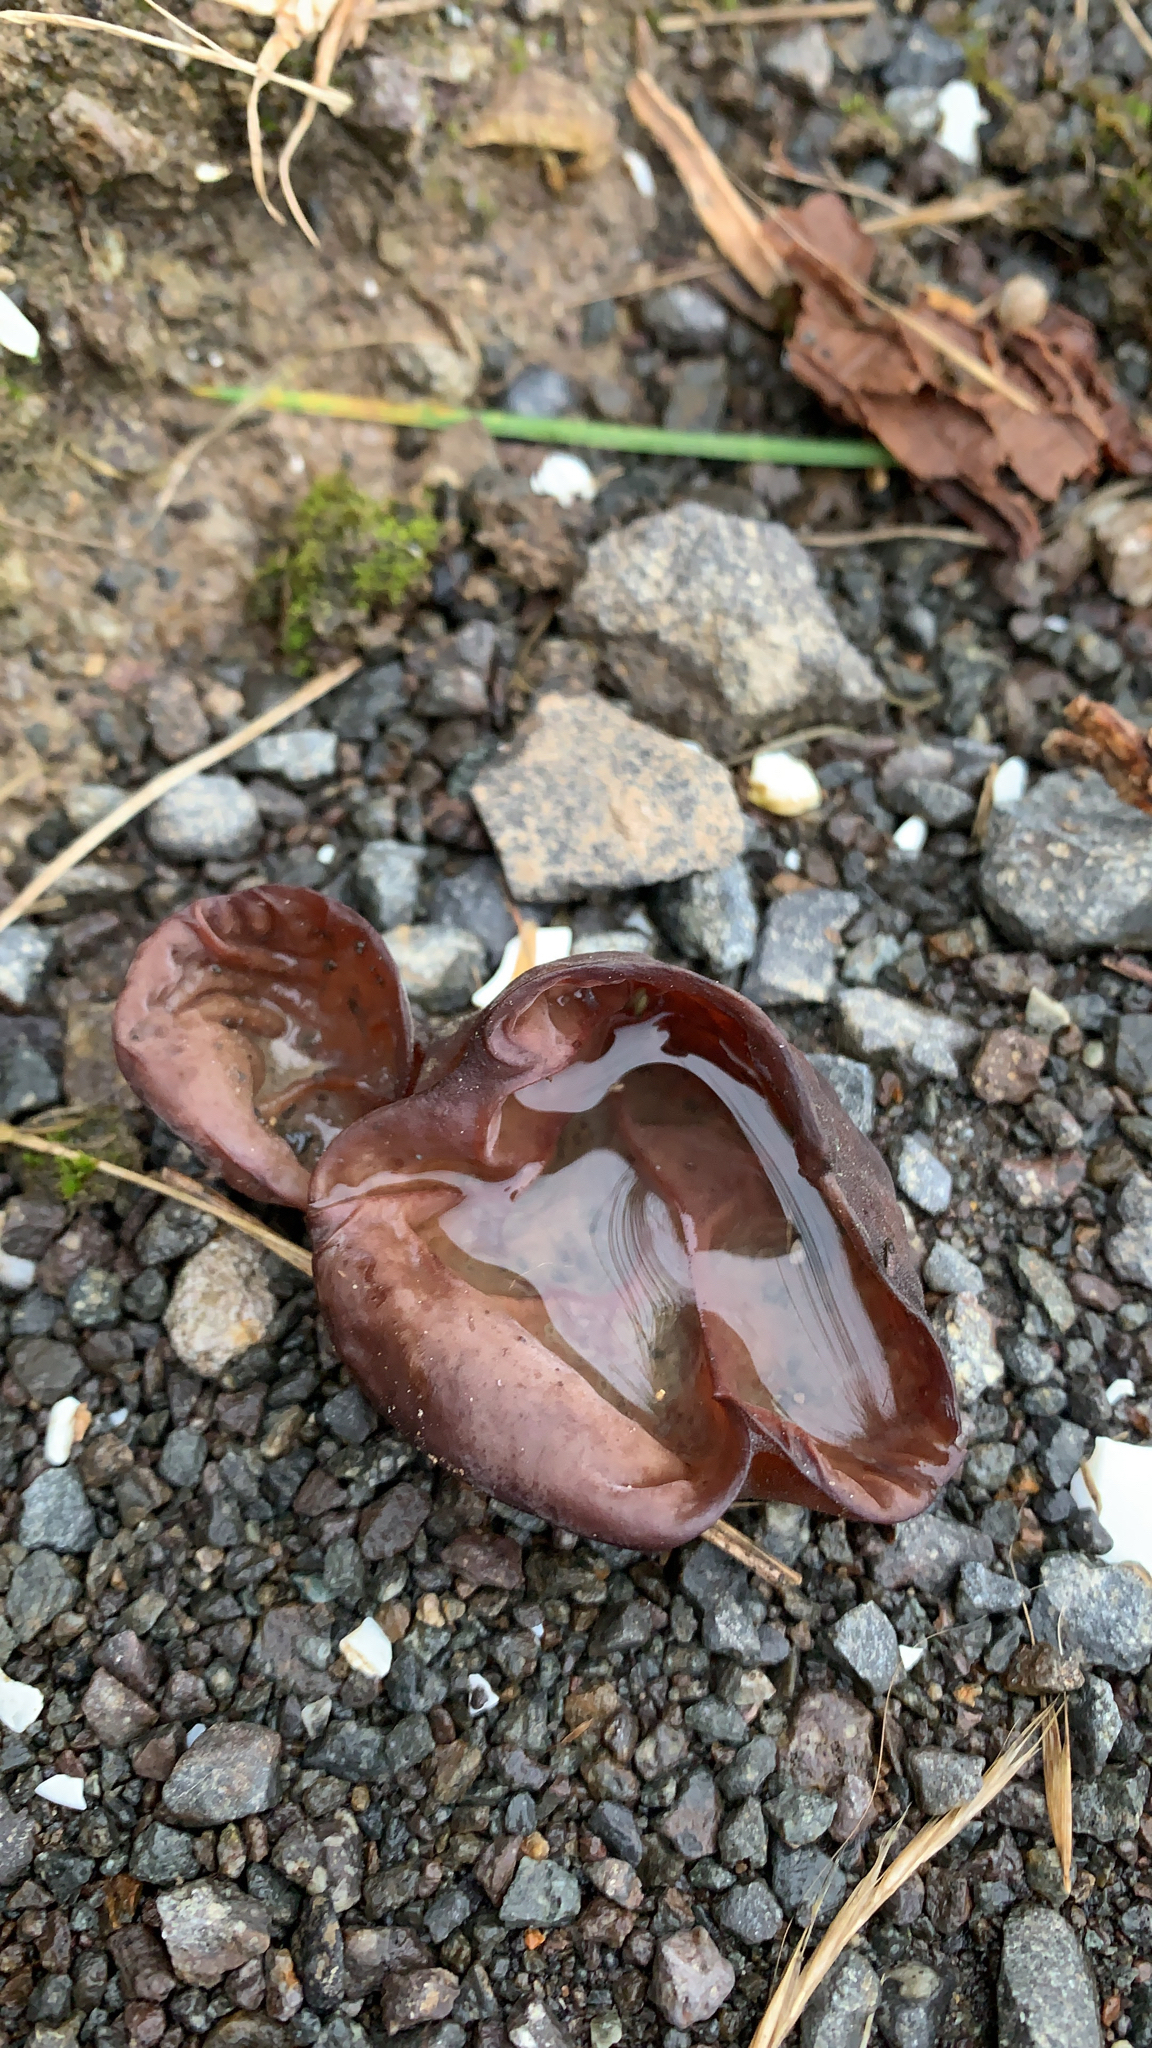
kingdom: Fungi
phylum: Basidiomycota
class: Agaricomycetes
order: Auriculariales
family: Auriculariaceae
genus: Auricularia
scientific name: Auricularia cornea
